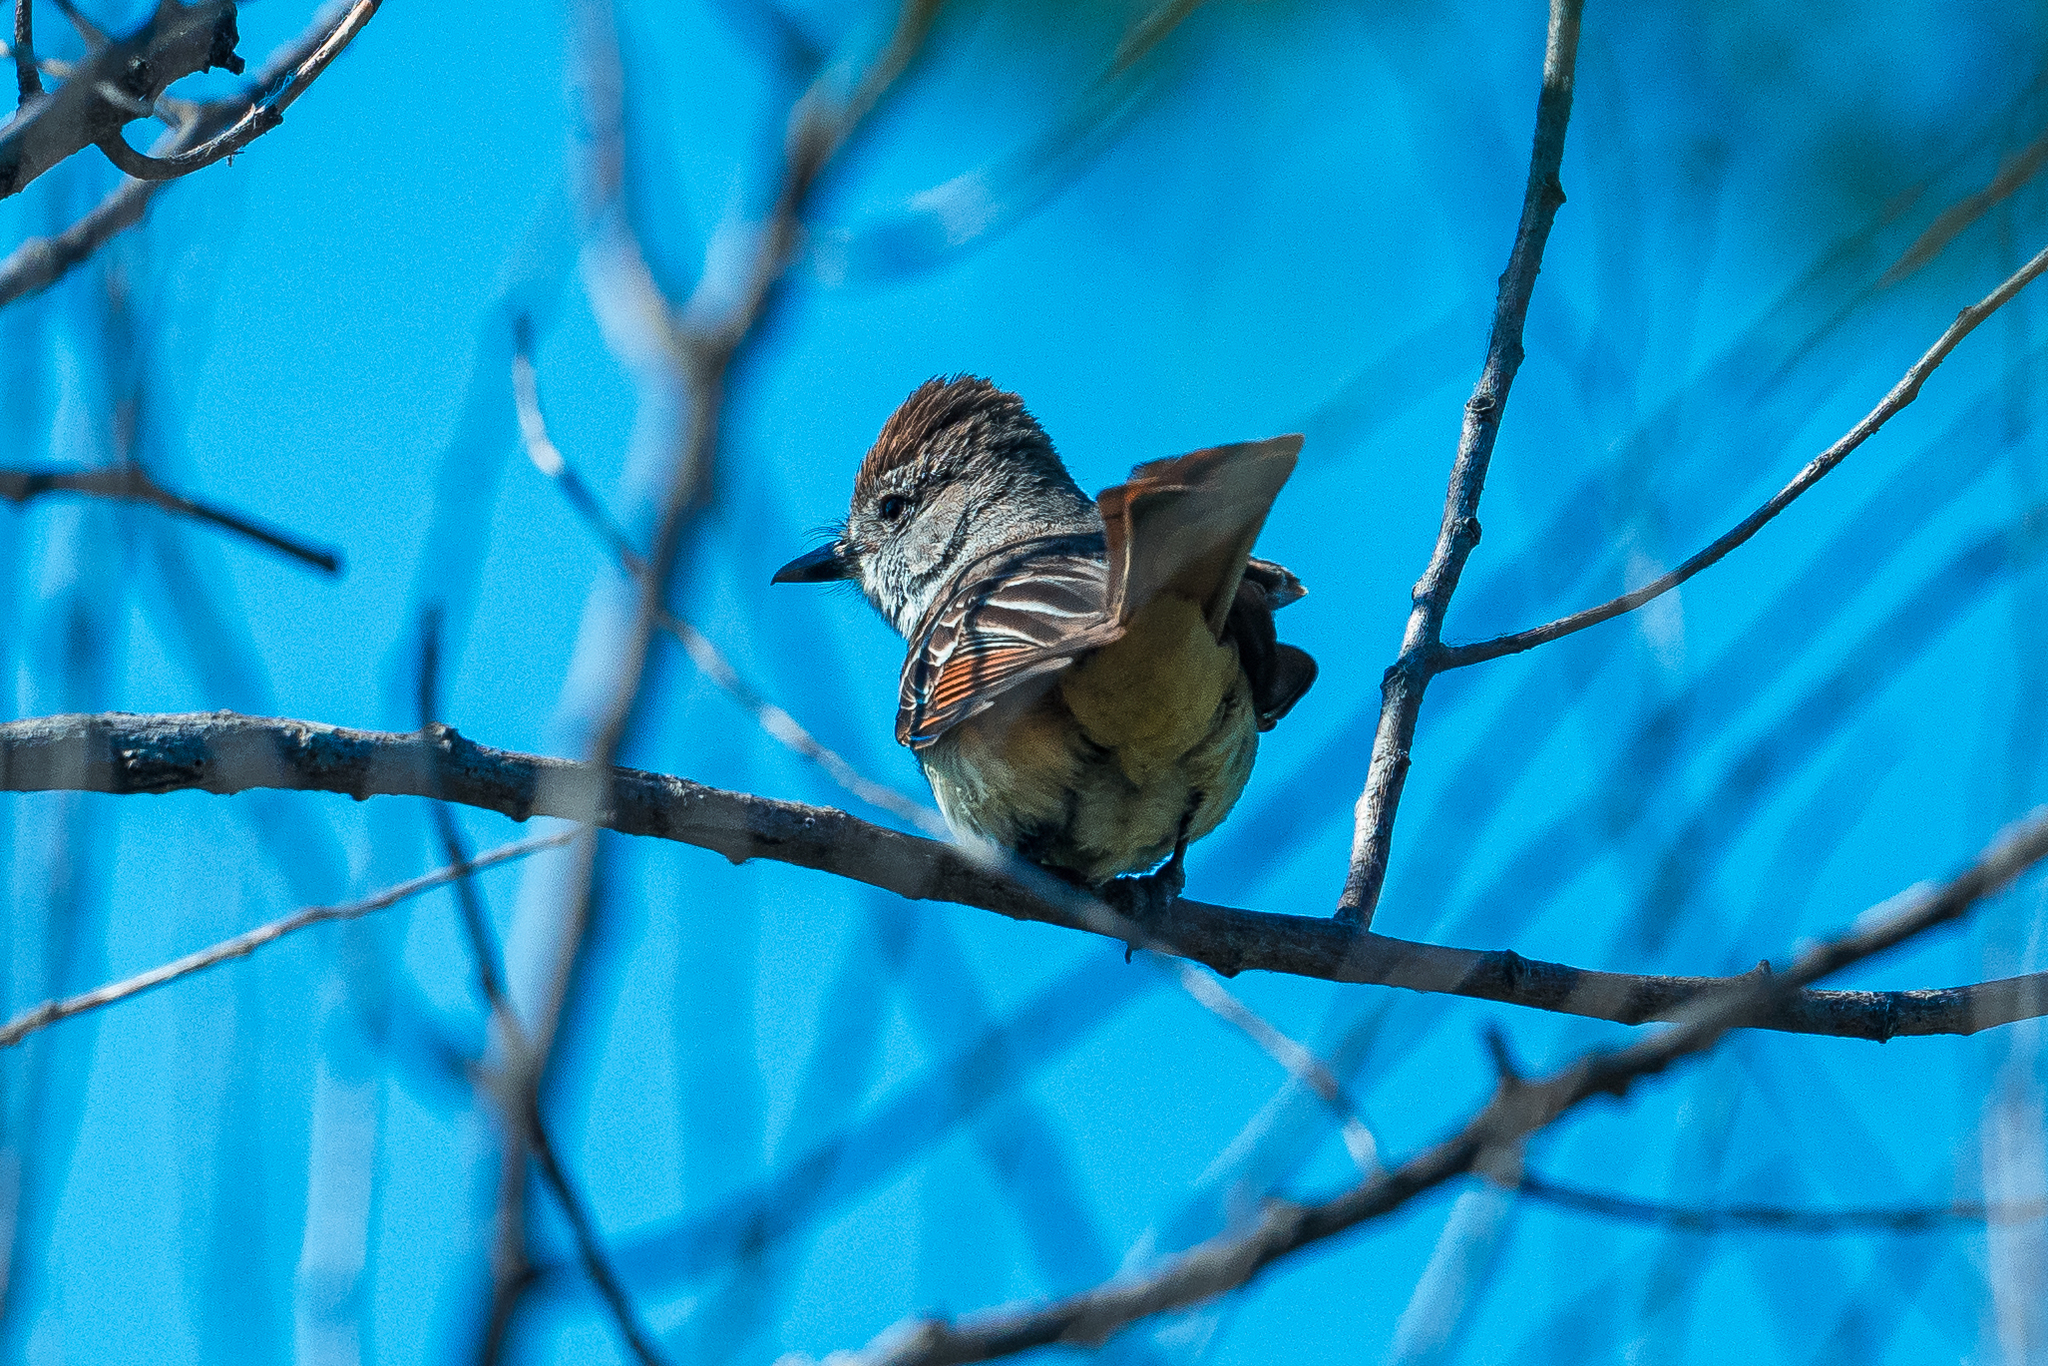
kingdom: Animalia
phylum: Chordata
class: Aves
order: Passeriformes
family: Tyrannidae
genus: Myiarchus
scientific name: Myiarchus cinerascens
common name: Ash-throated flycatcher
